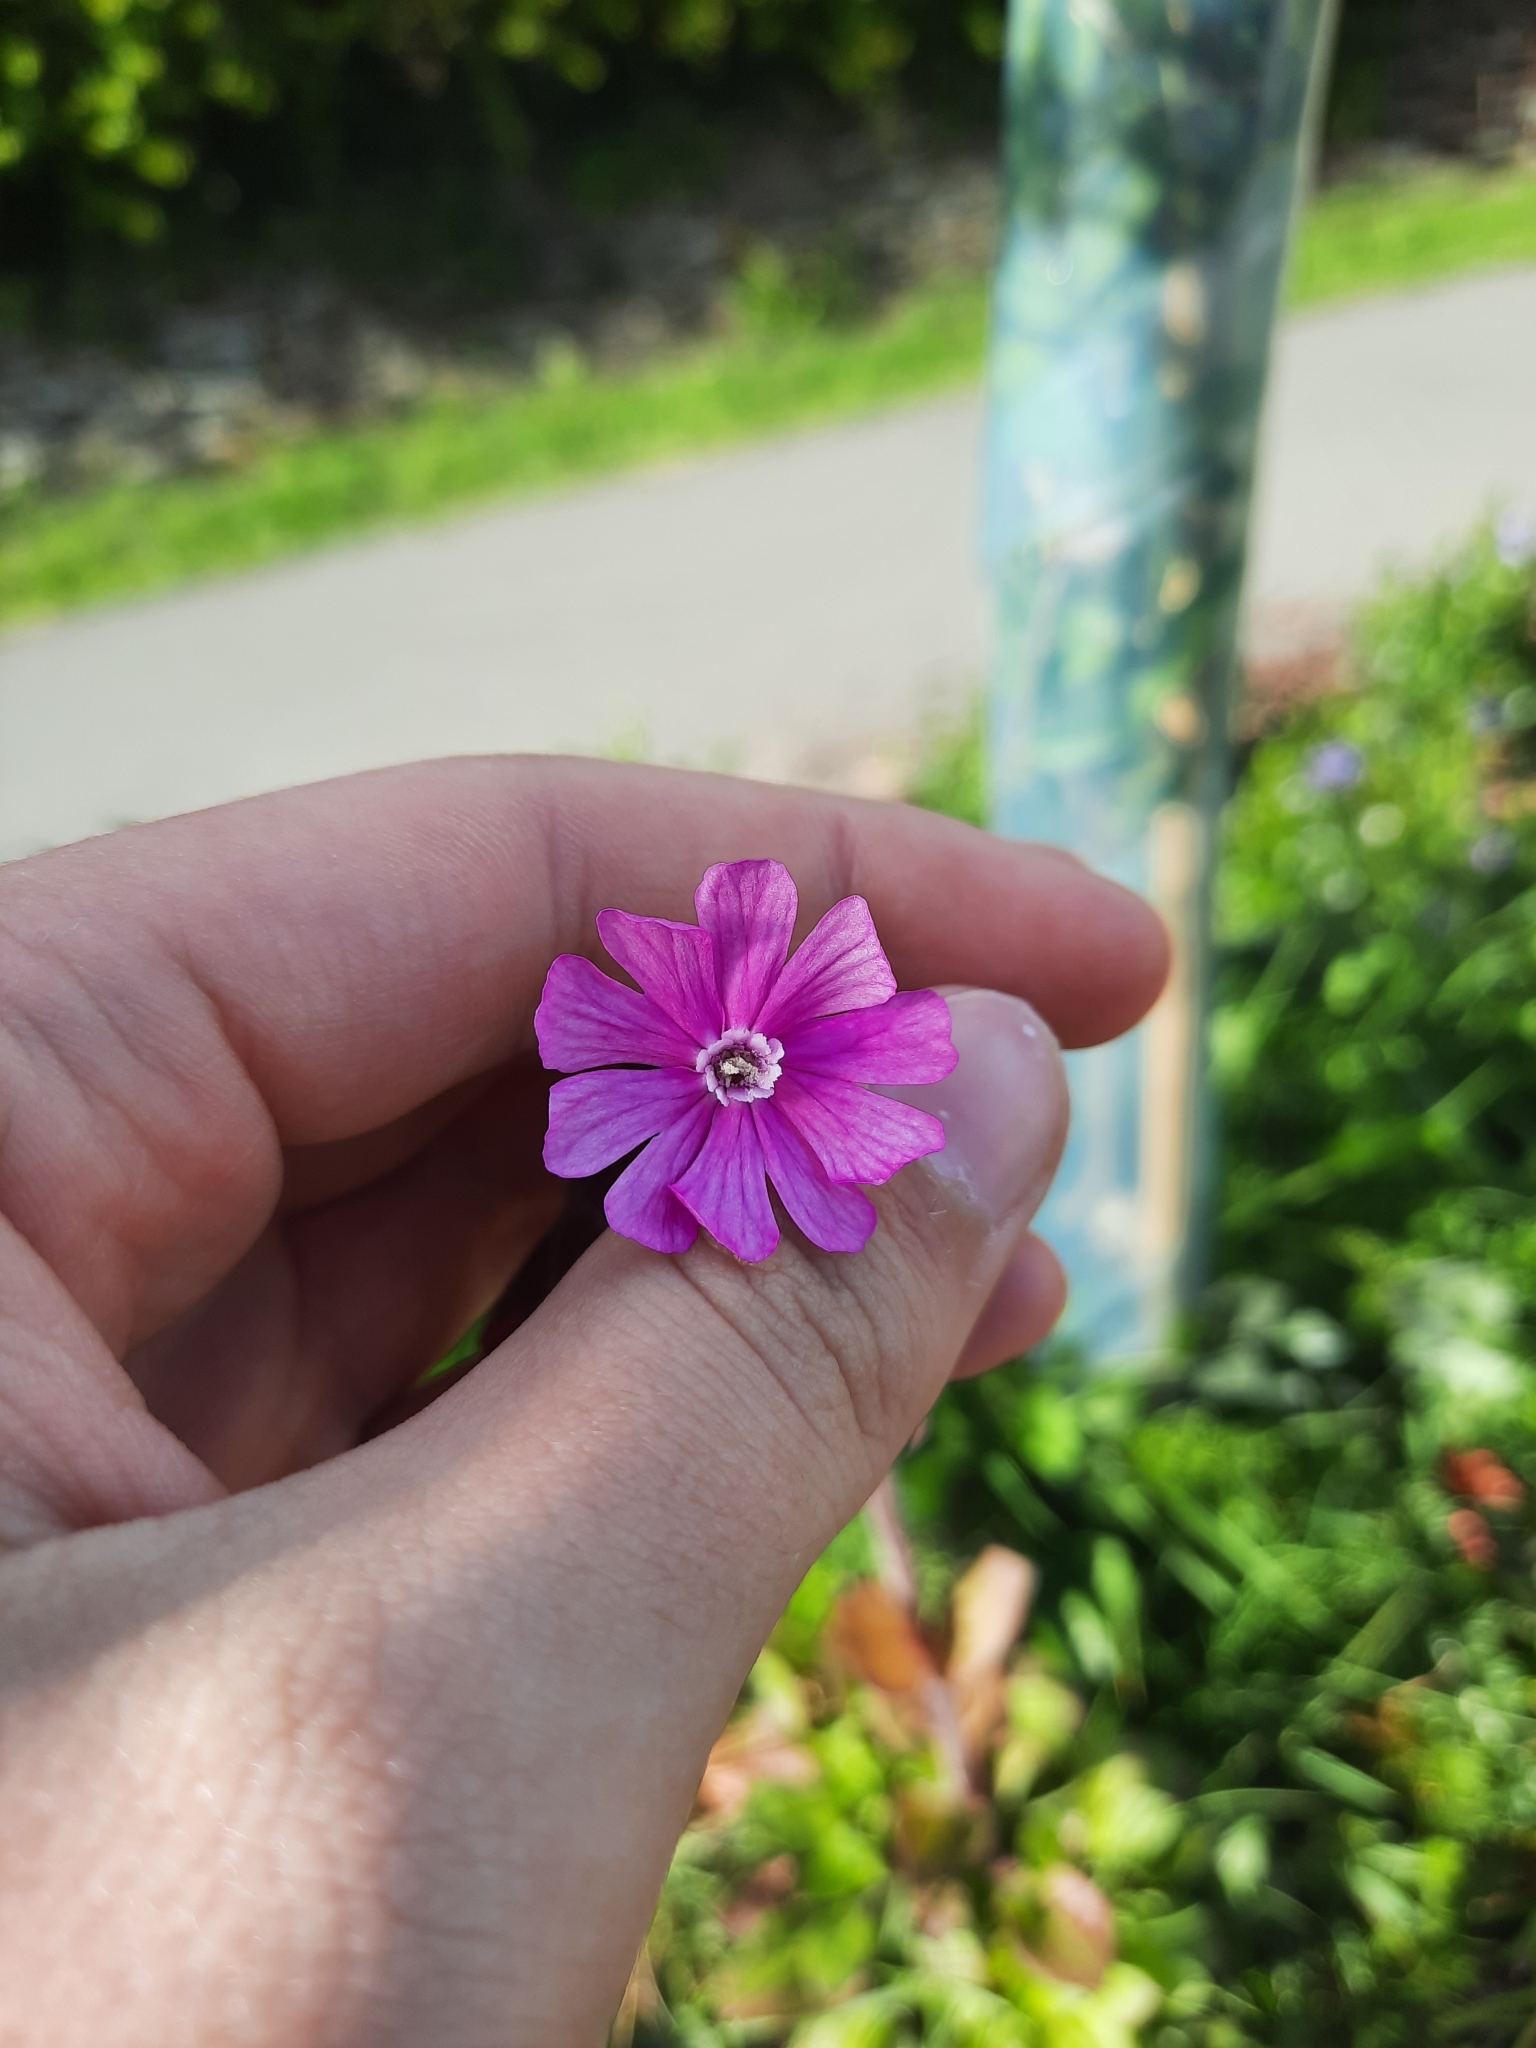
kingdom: Plantae
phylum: Tracheophyta
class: Magnoliopsida
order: Caryophyllales
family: Caryophyllaceae
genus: Silene
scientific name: Silene dioica
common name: Red campion
